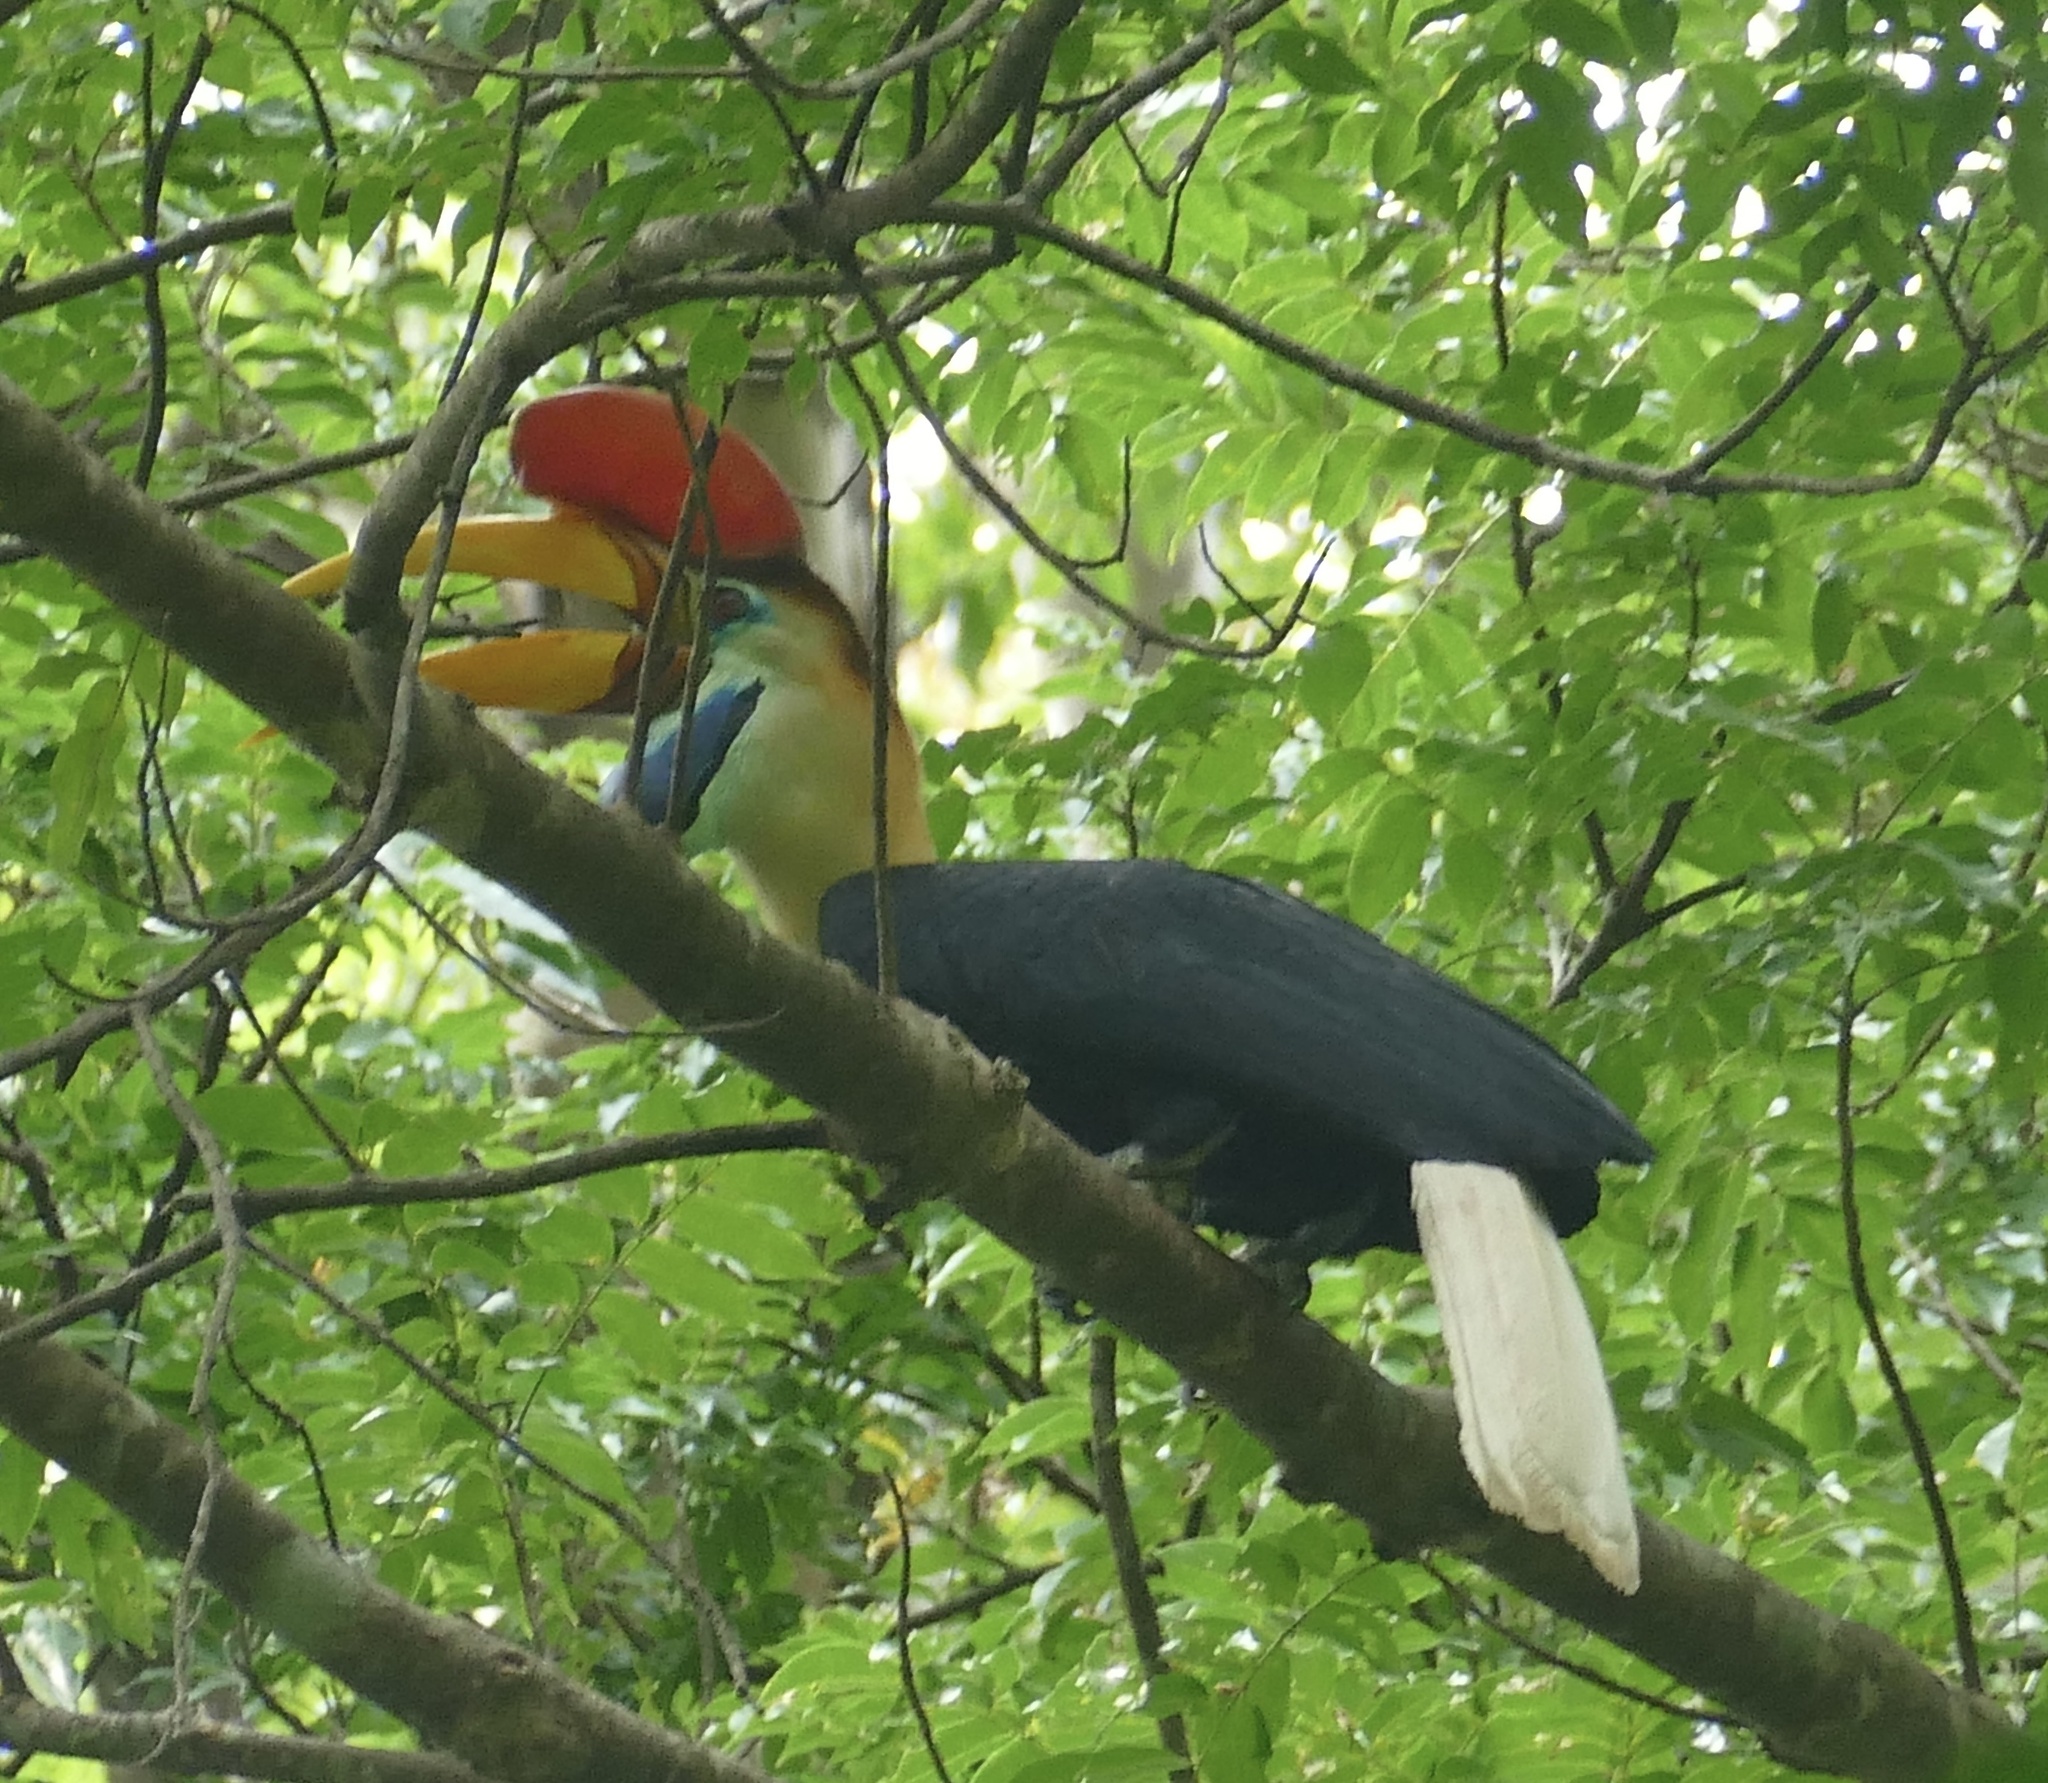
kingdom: Animalia
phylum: Chordata
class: Aves
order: Bucerotiformes
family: Bucerotidae
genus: Rhyticeros
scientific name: Rhyticeros cassidix
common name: Knobbed hornbill
